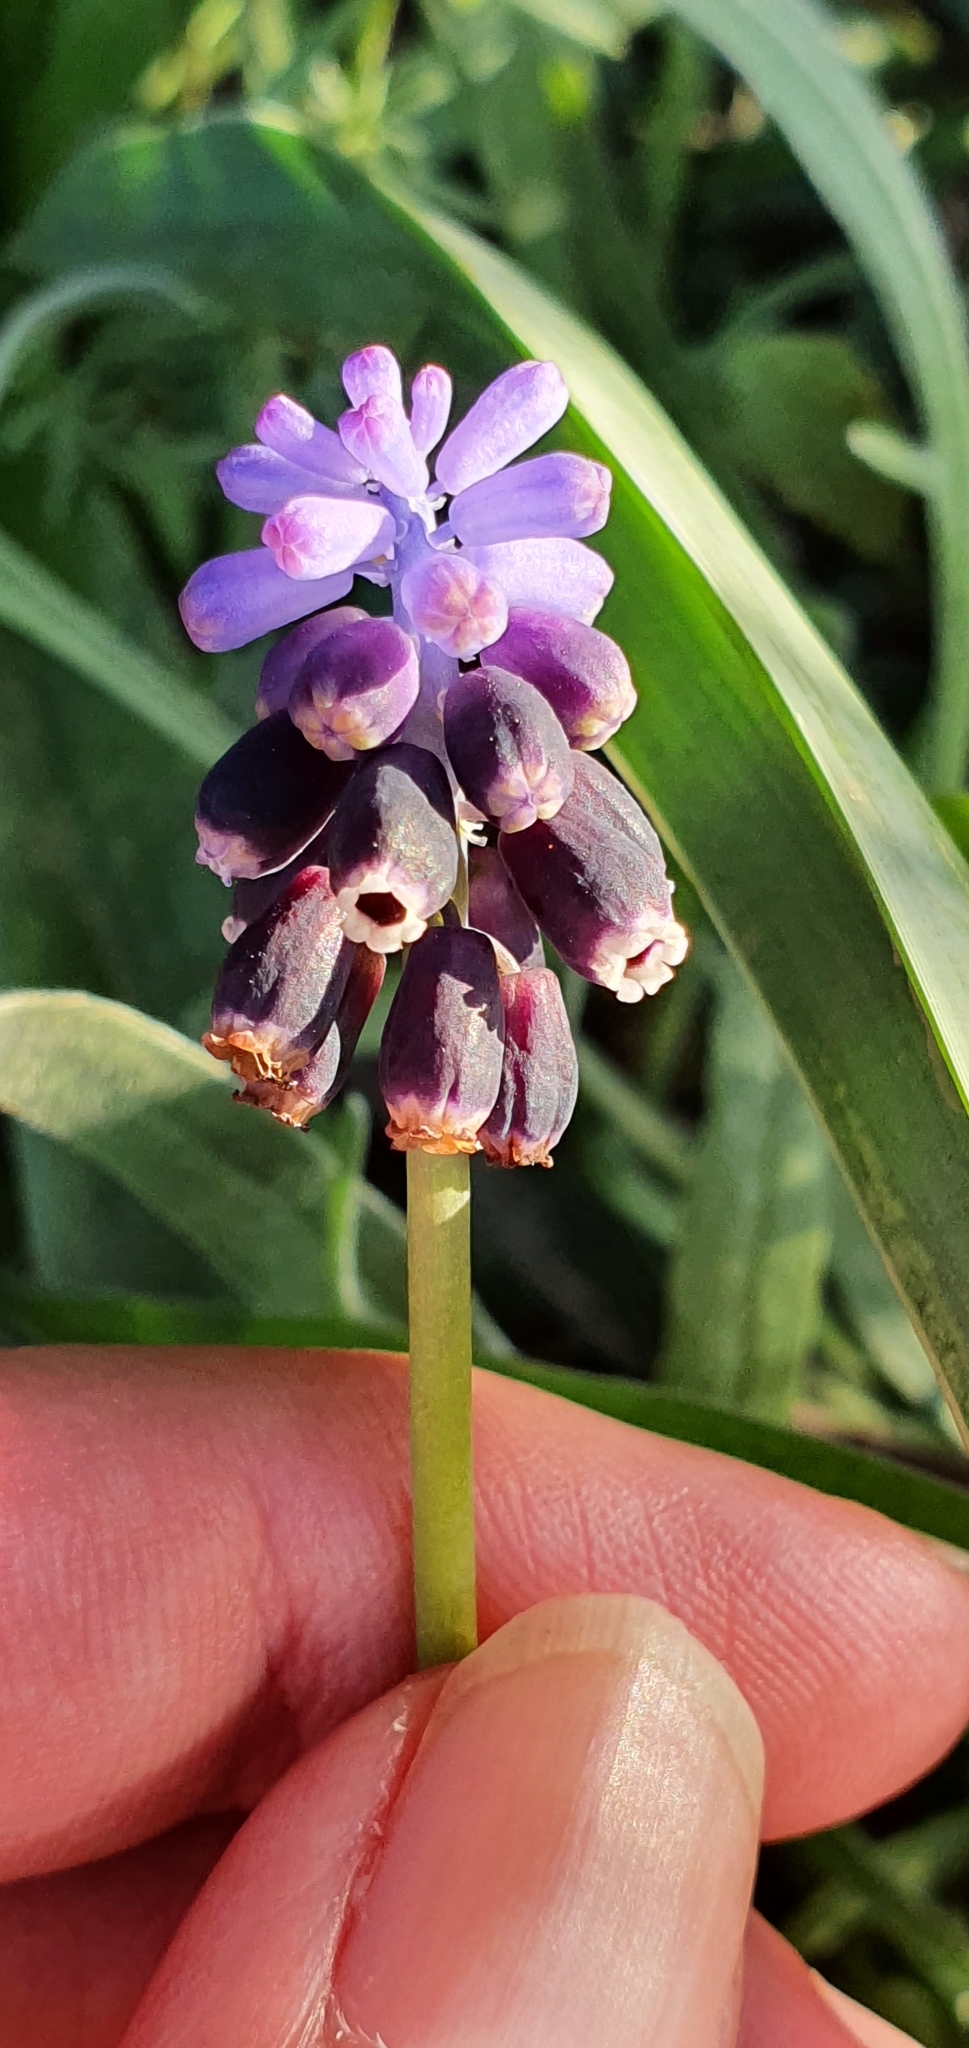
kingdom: Plantae
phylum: Tracheophyta
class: Liliopsida
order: Asparagales
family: Asparagaceae
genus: Muscari
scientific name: Muscari baeticum
